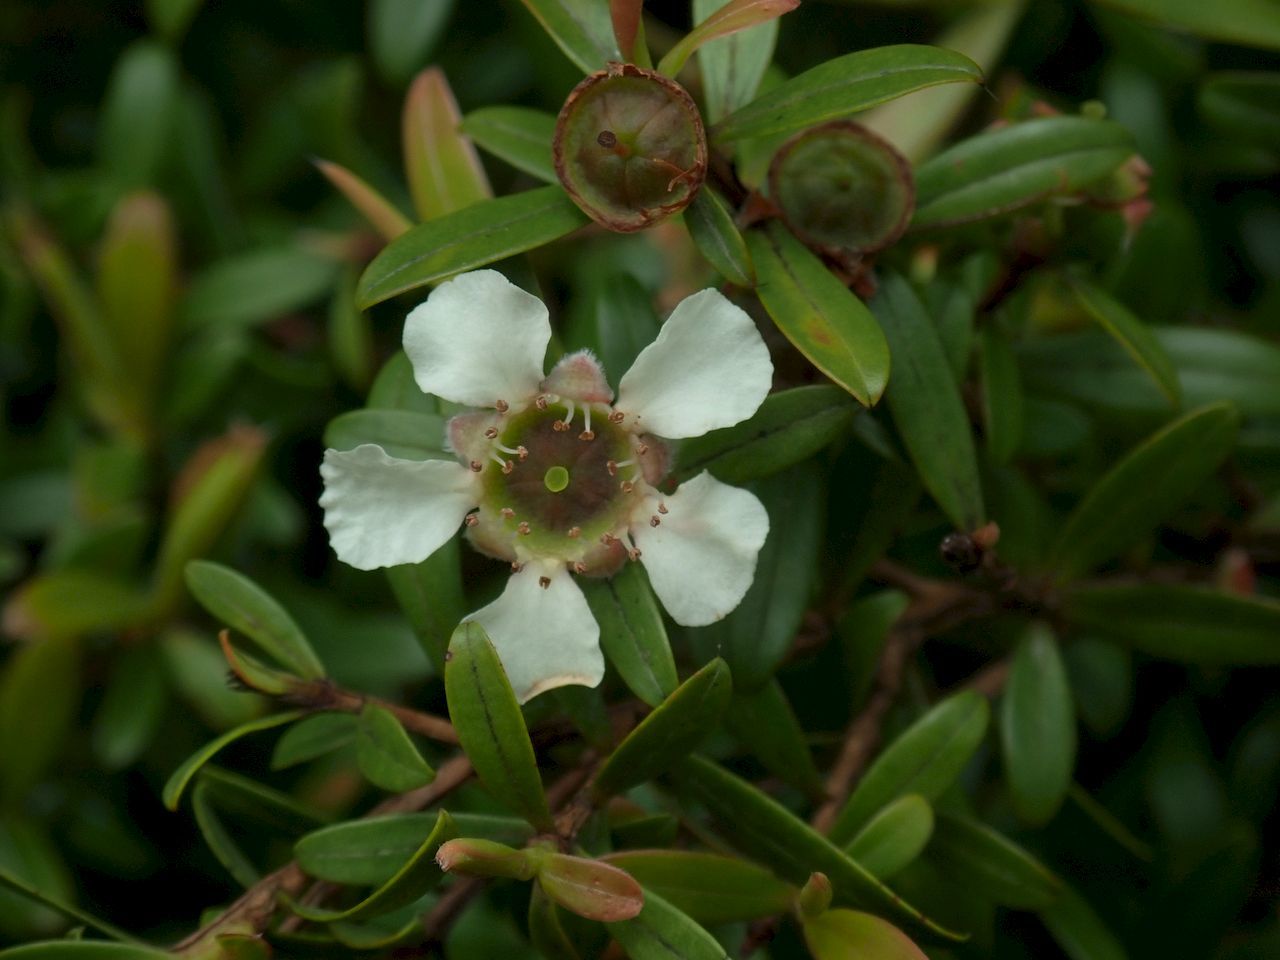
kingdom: Plantae
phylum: Tracheophyta
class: Magnoliopsida
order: Myrtales
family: Myrtaceae
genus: Leptospermum
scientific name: Leptospermum wooroonooran
